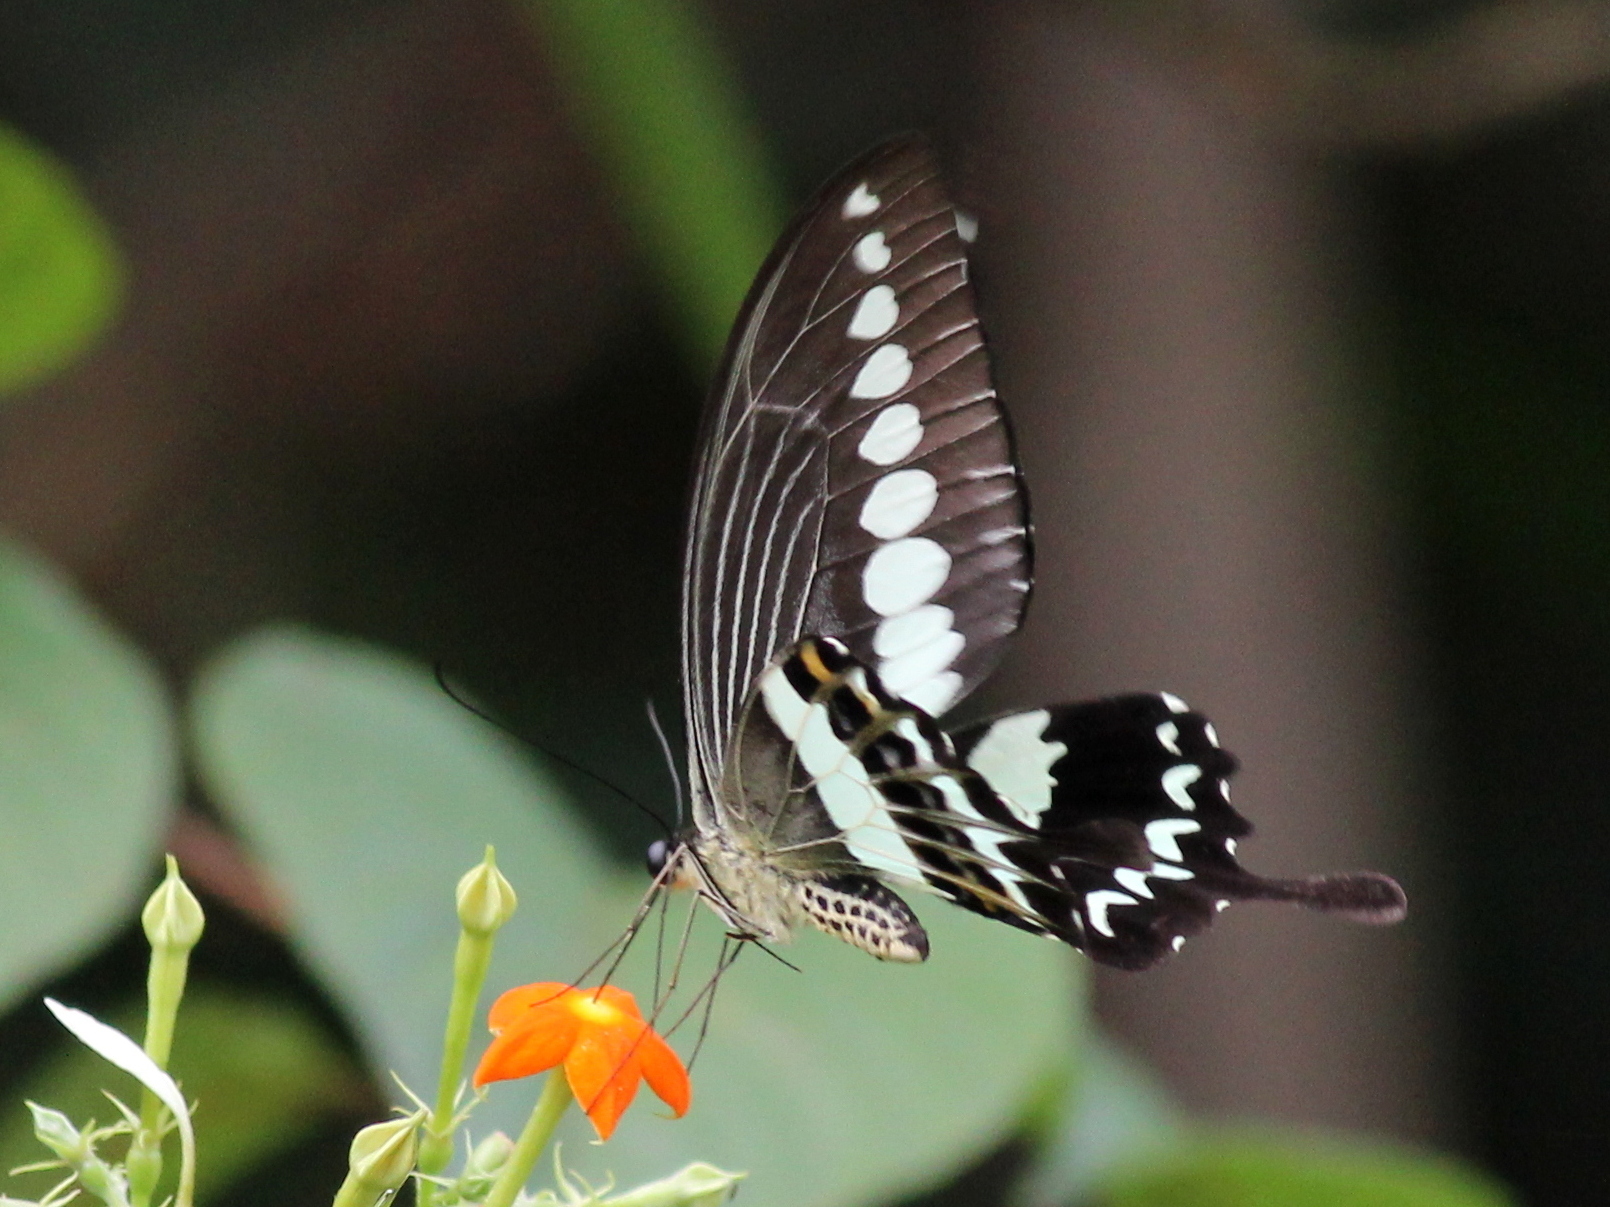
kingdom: Animalia
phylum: Arthropoda
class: Insecta
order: Lepidoptera
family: Papilionidae
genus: Papilio
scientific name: Papilio liomedon
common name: Malabar banded swallowtail
